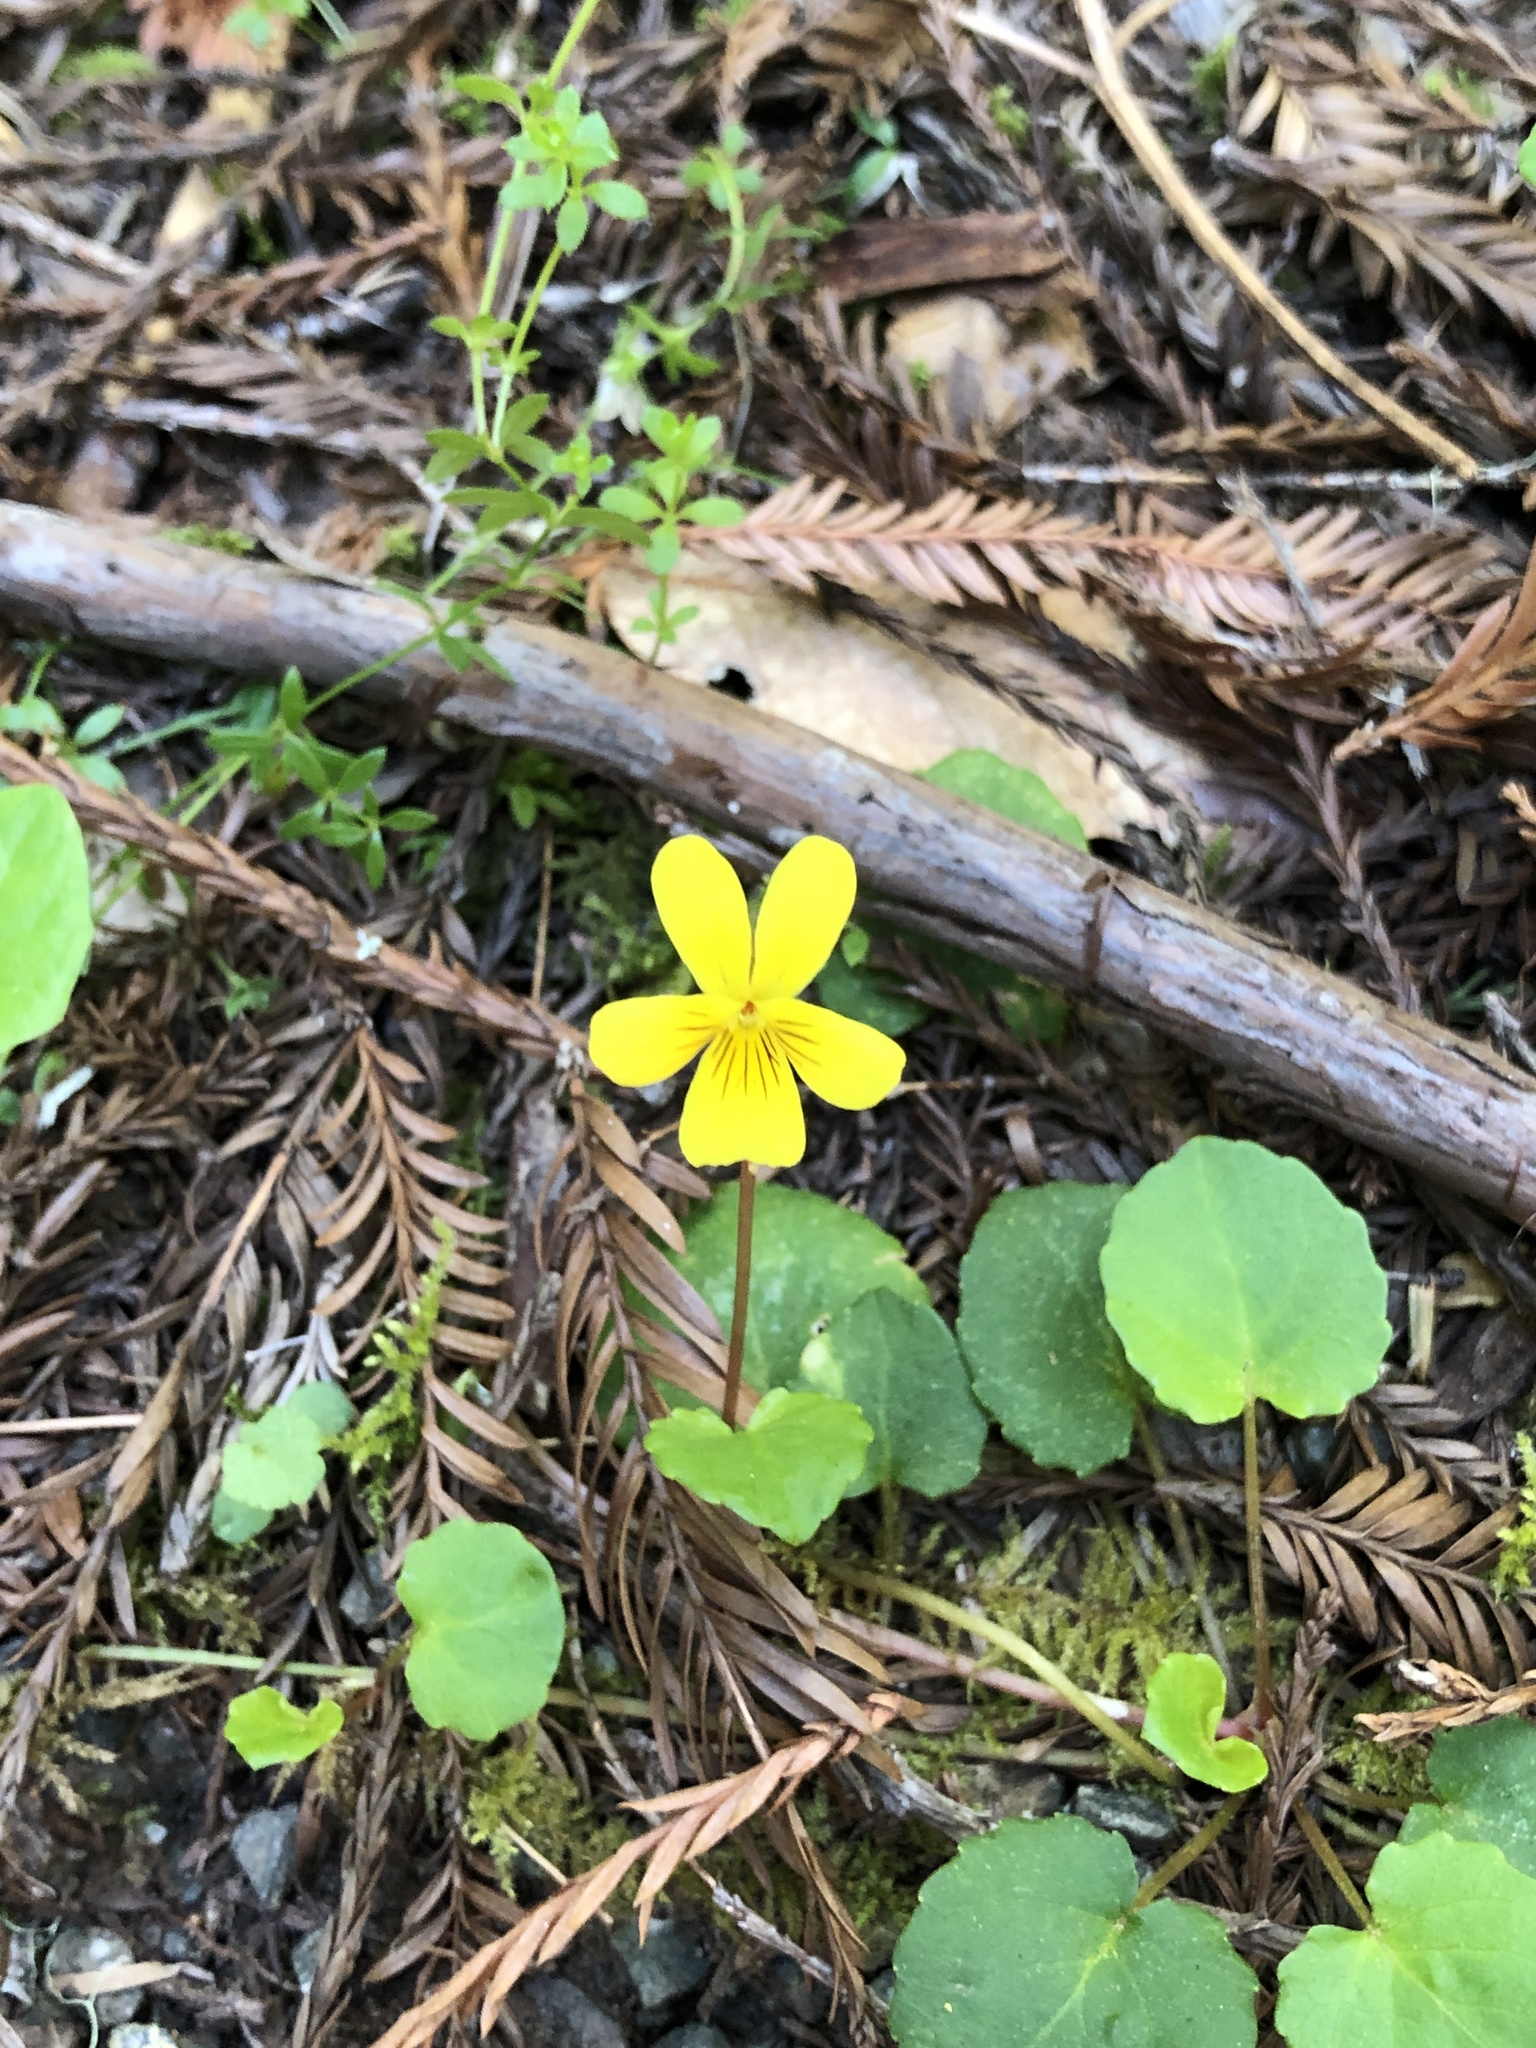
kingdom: Plantae
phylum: Tracheophyta
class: Magnoliopsida
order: Malpighiales
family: Violaceae
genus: Viola
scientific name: Viola sempervirens
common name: Evergreen violet
